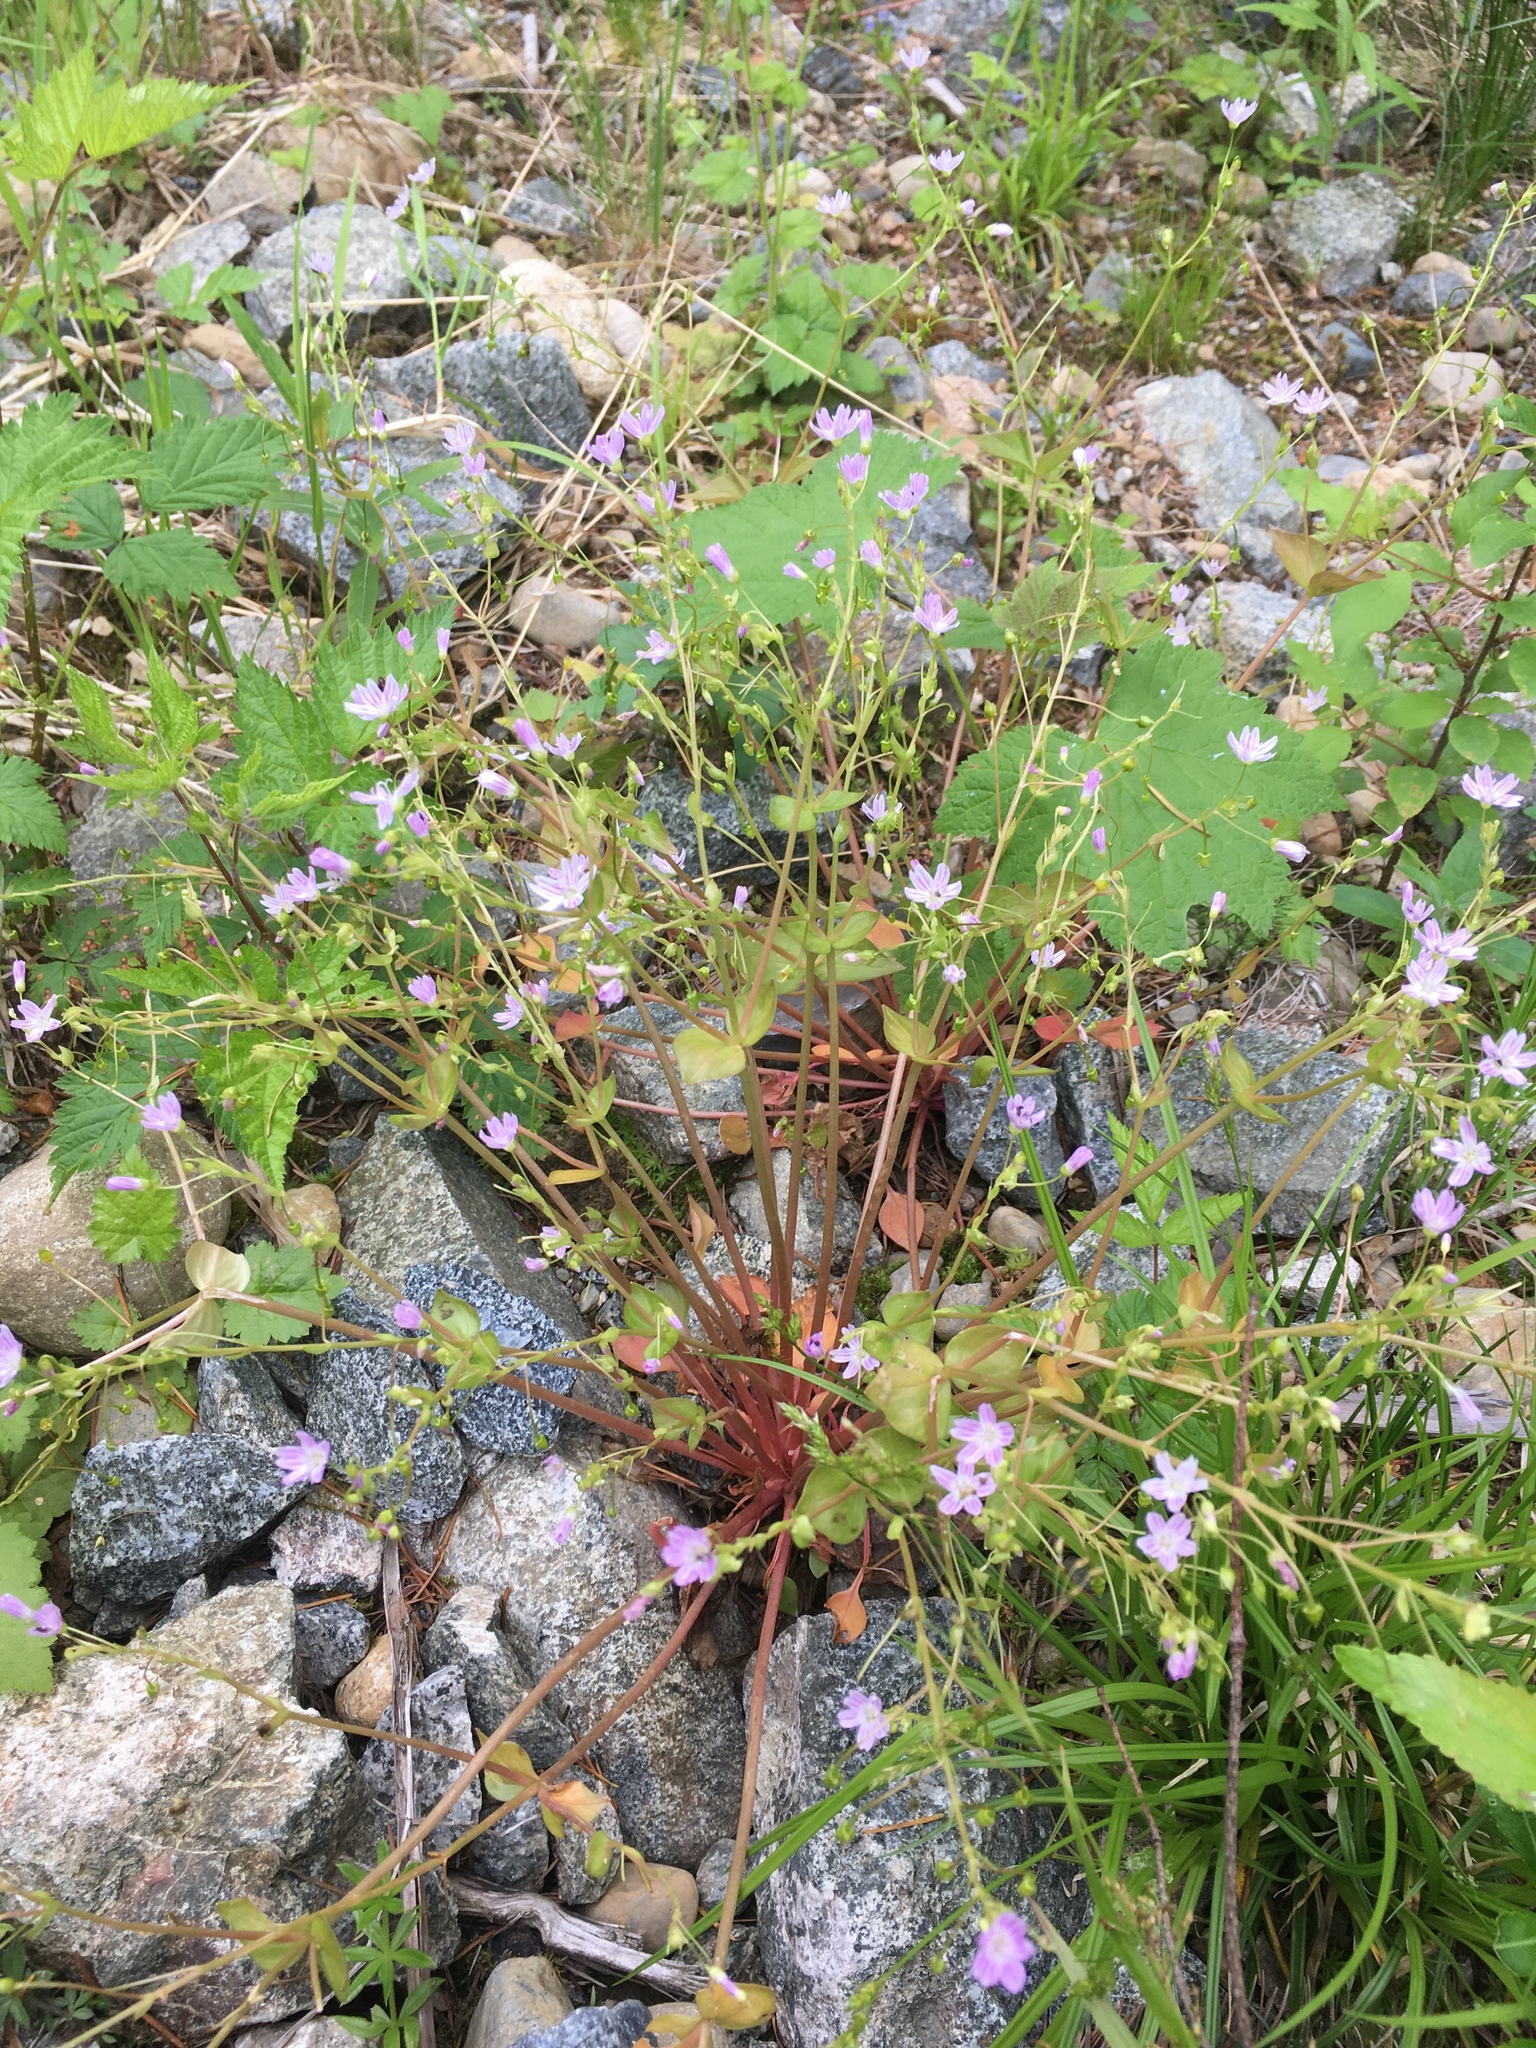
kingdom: Plantae
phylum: Tracheophyta
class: Magnoliopsida
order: Caryophyllales
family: Montiaceae
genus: Claytonia
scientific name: Claytonia sibirica
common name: Pink purslane
